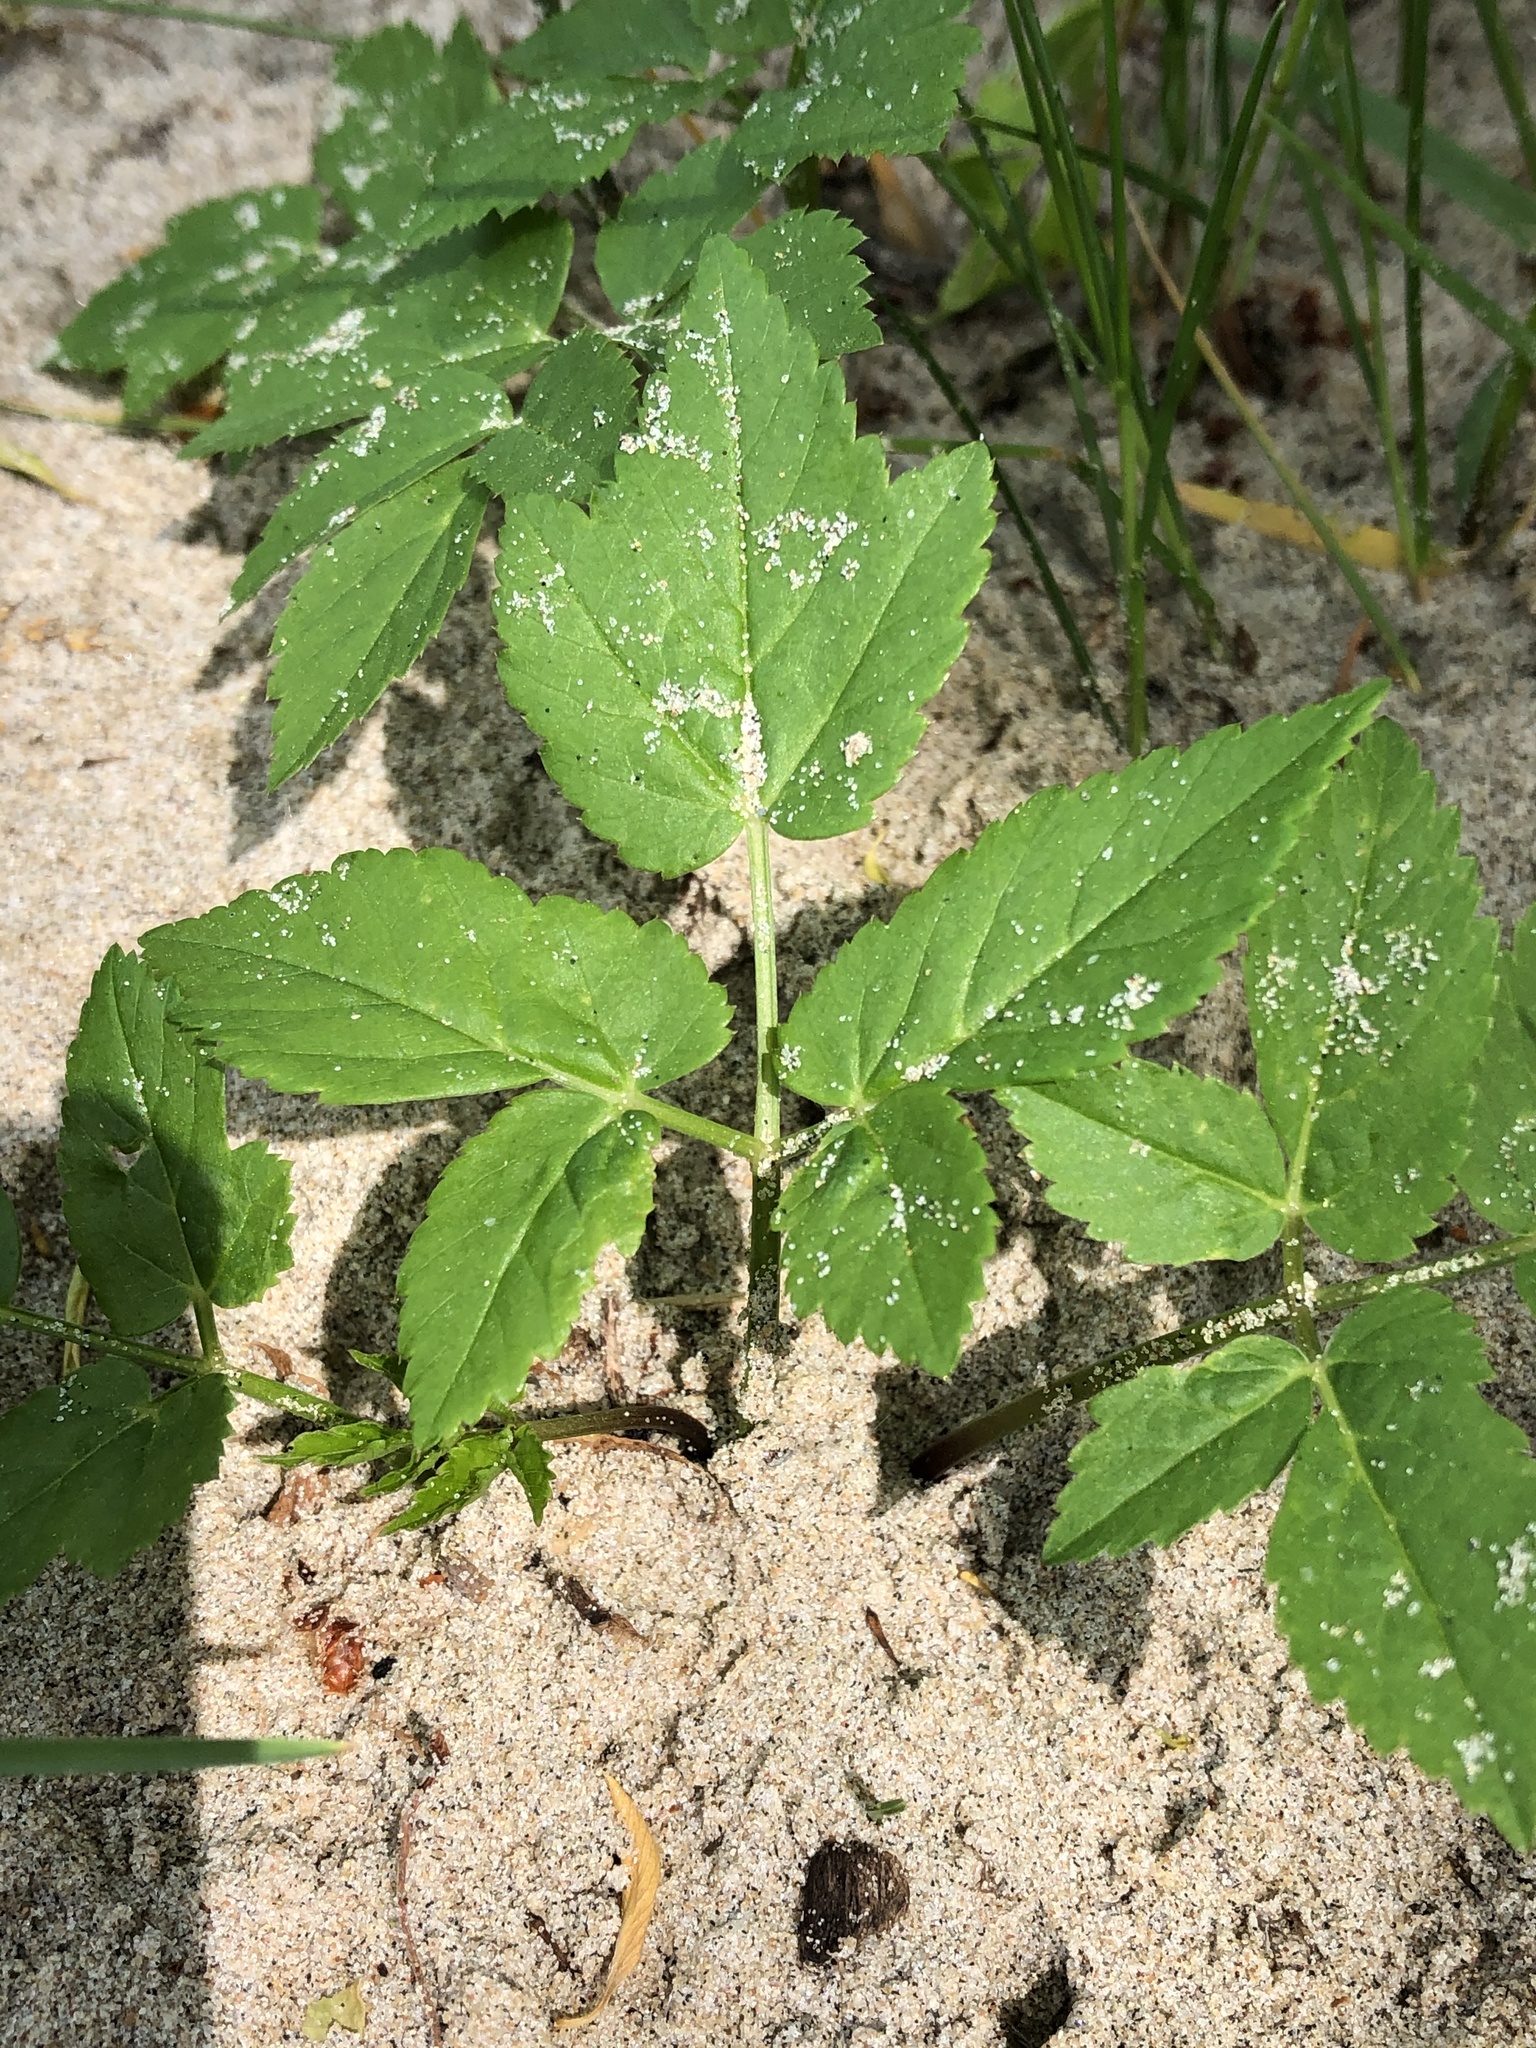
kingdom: Plantae
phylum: Tracheophyta
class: Magnoliopsida
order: Apiales
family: Apiaceae
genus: Aegopodium
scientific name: Aegopodium podagraria
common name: Ground-elder
